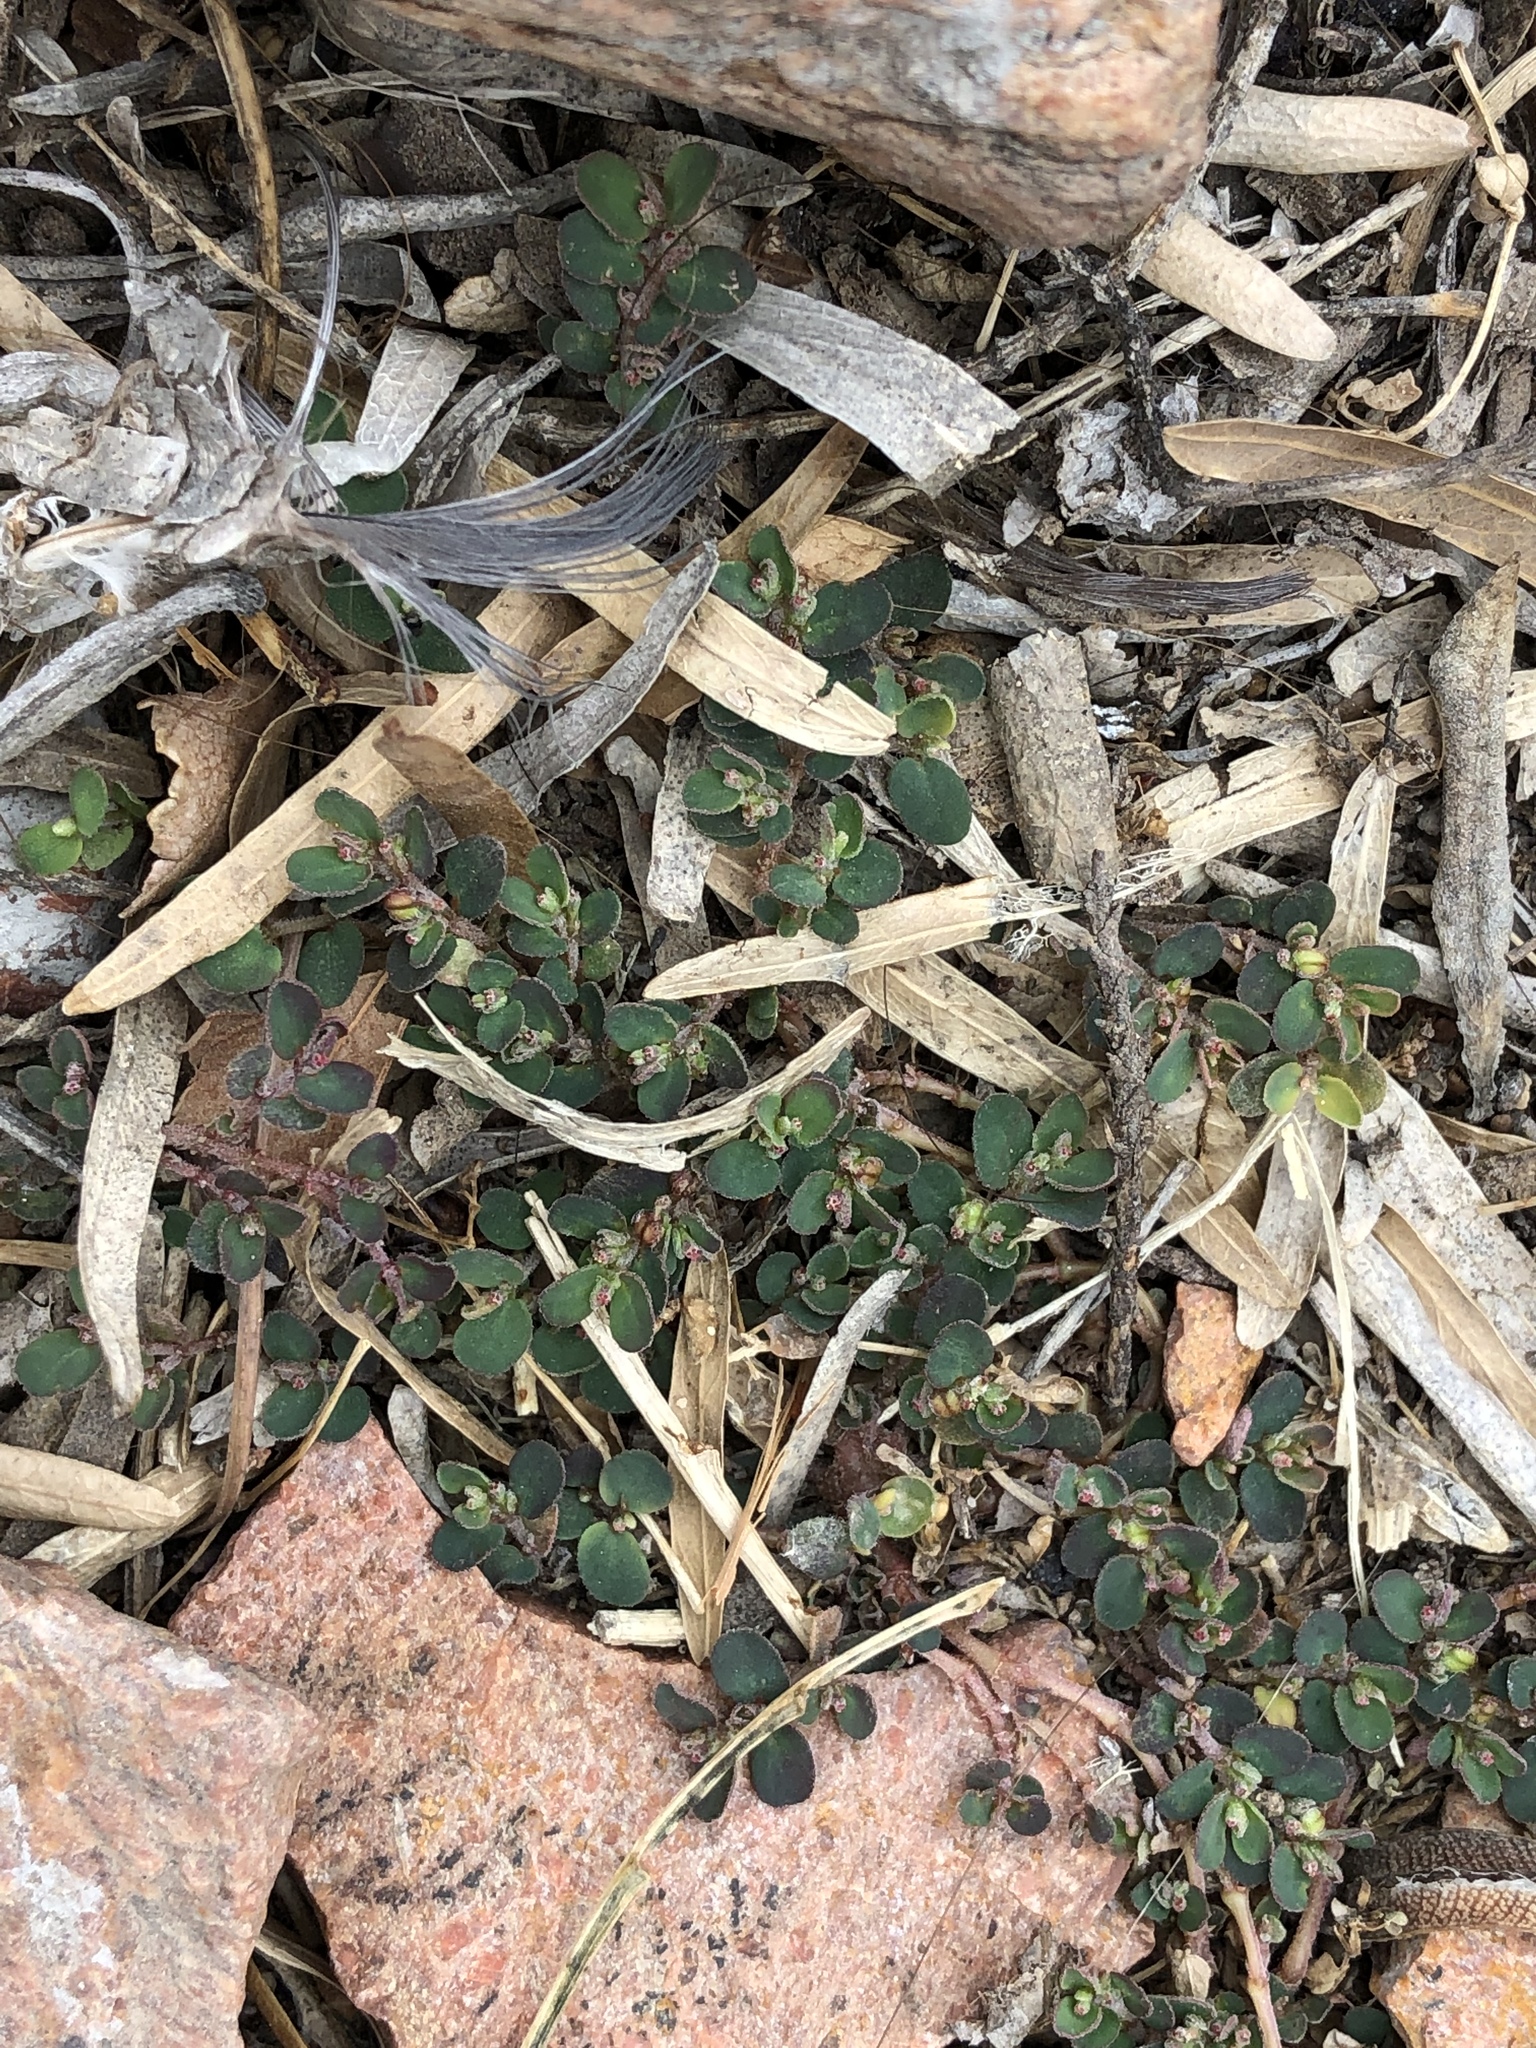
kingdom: Plantae
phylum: Tracheophyta
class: Magnoliopsida
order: Malpighiales
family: Euphorbiaceae
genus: Euphorbia
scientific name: Euphorbia prostrata
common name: Prostrate sandmat
